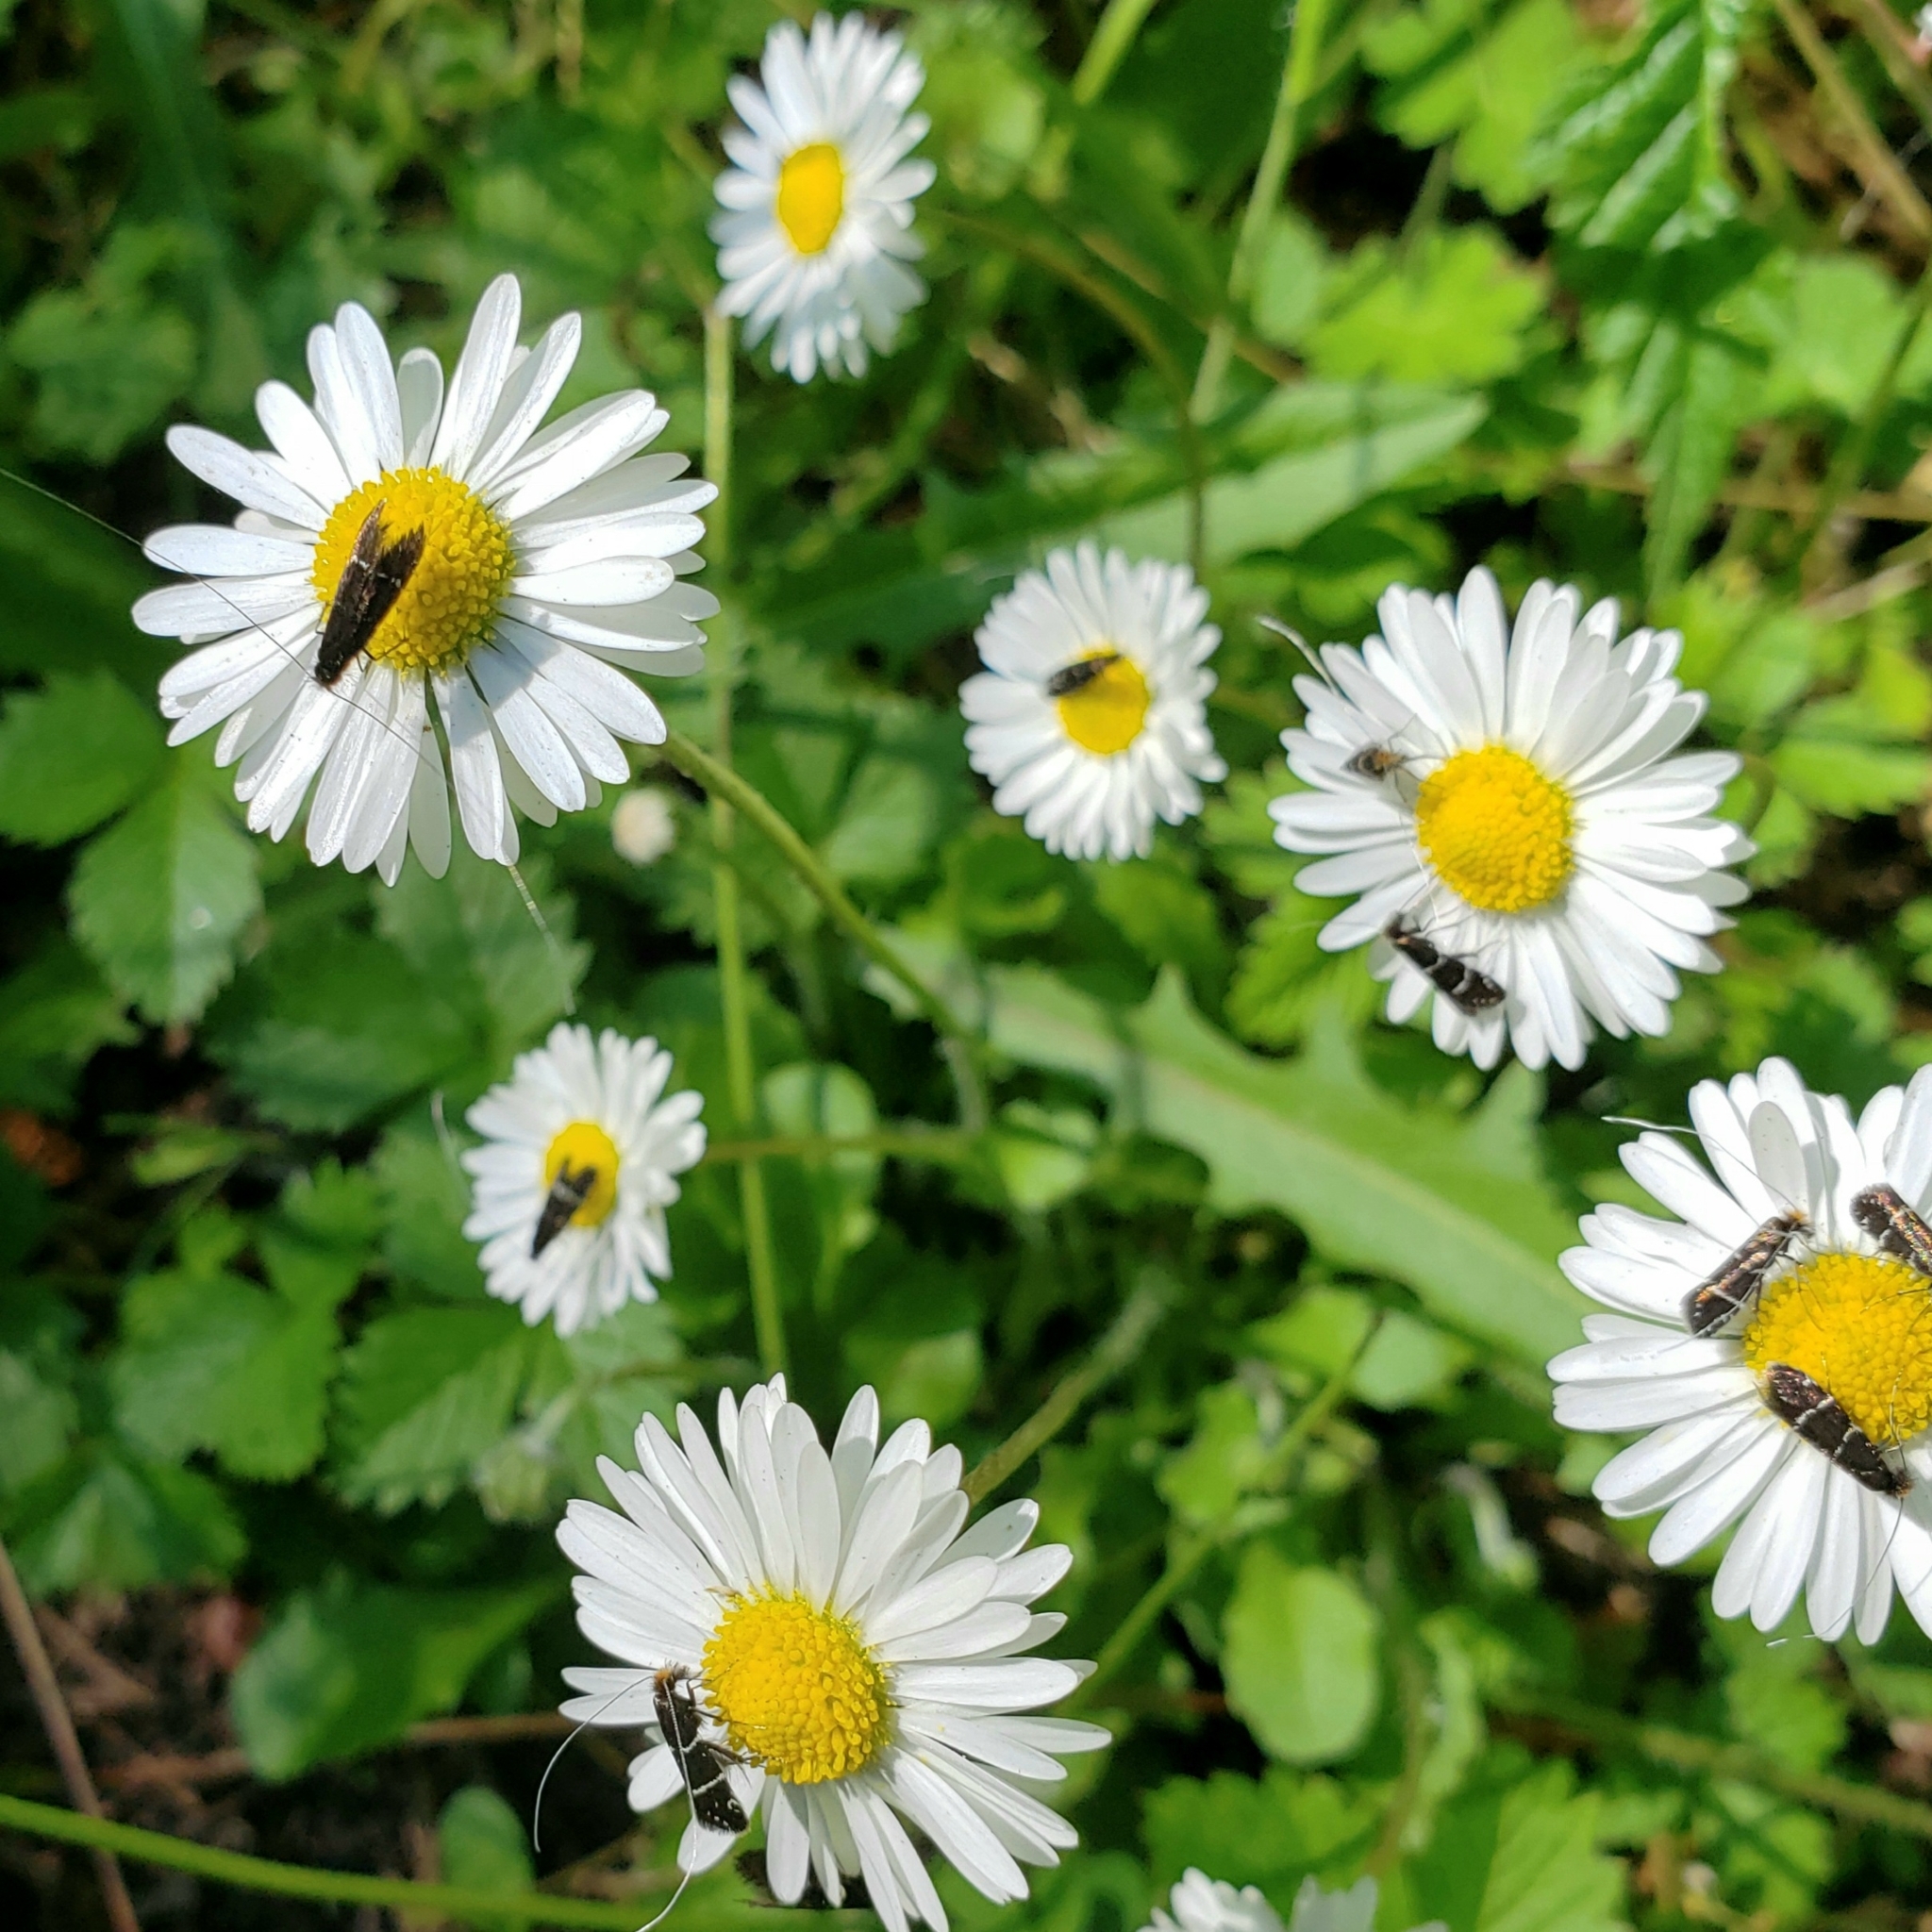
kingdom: Animalia
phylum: Arthropoda
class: Insecta
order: Lepidoptera
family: Adelidae
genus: Adela
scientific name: Adela septentrionella
